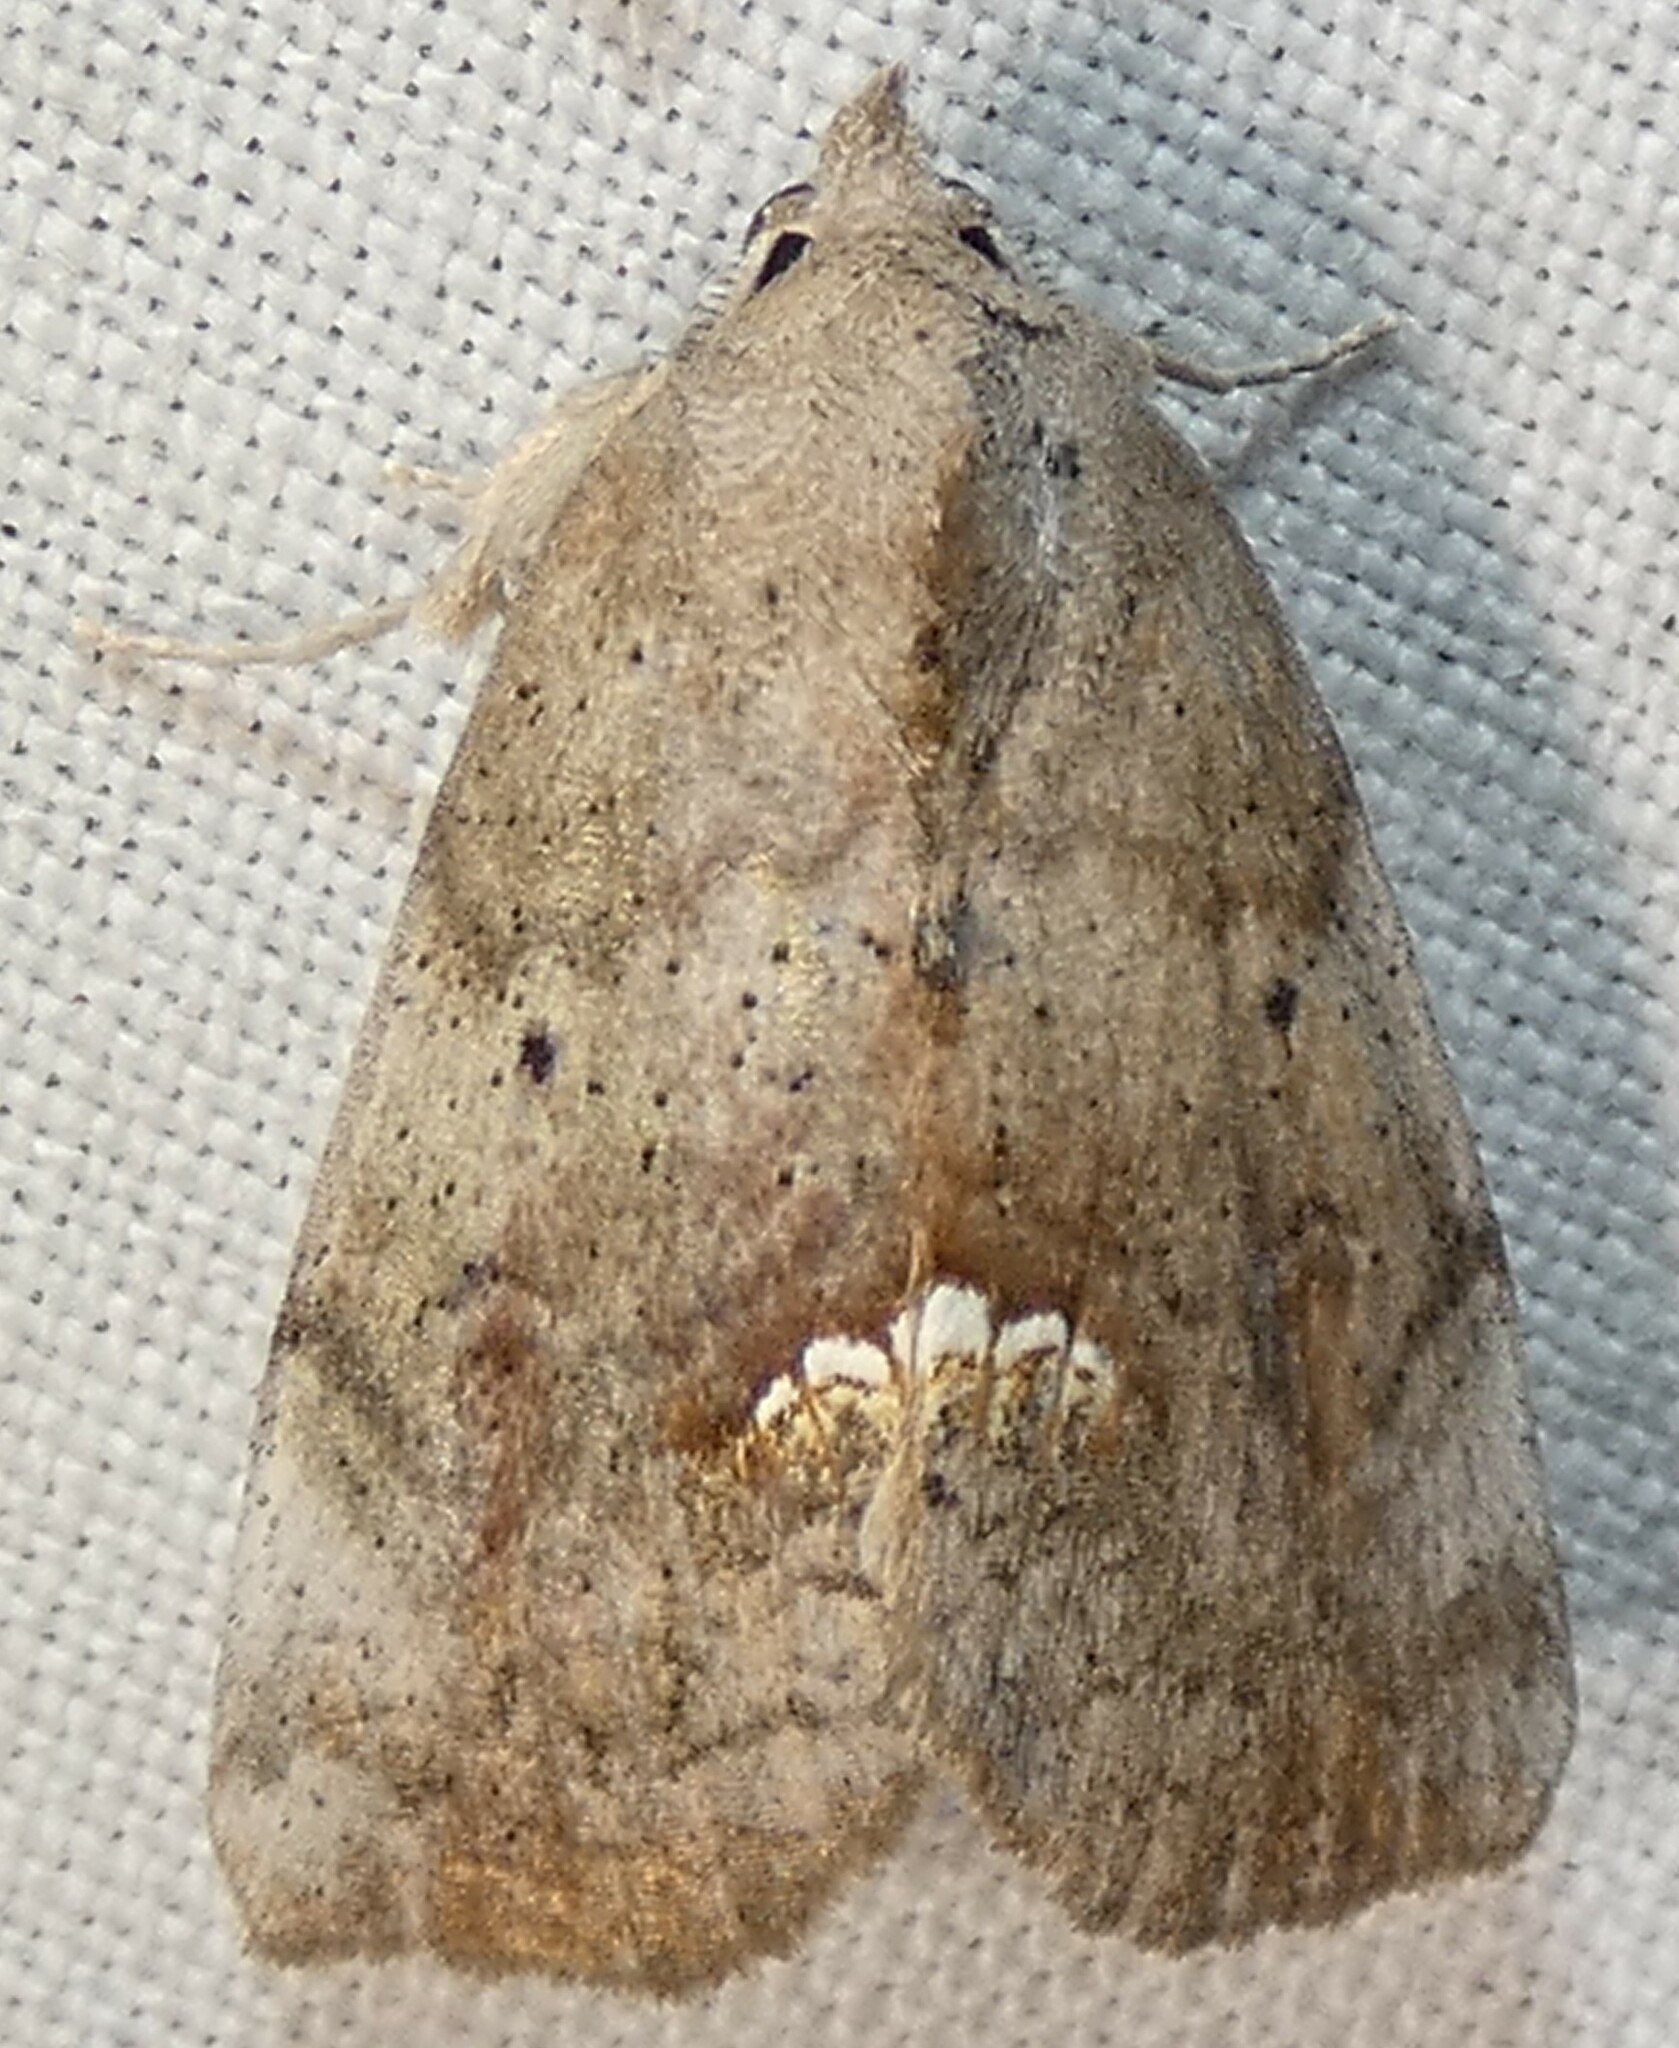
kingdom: Animalia
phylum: Arthropoda
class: Insecta
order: Lepidoptera
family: Erebidae
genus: Hypsoropha
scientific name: Hypsoropha hormos
